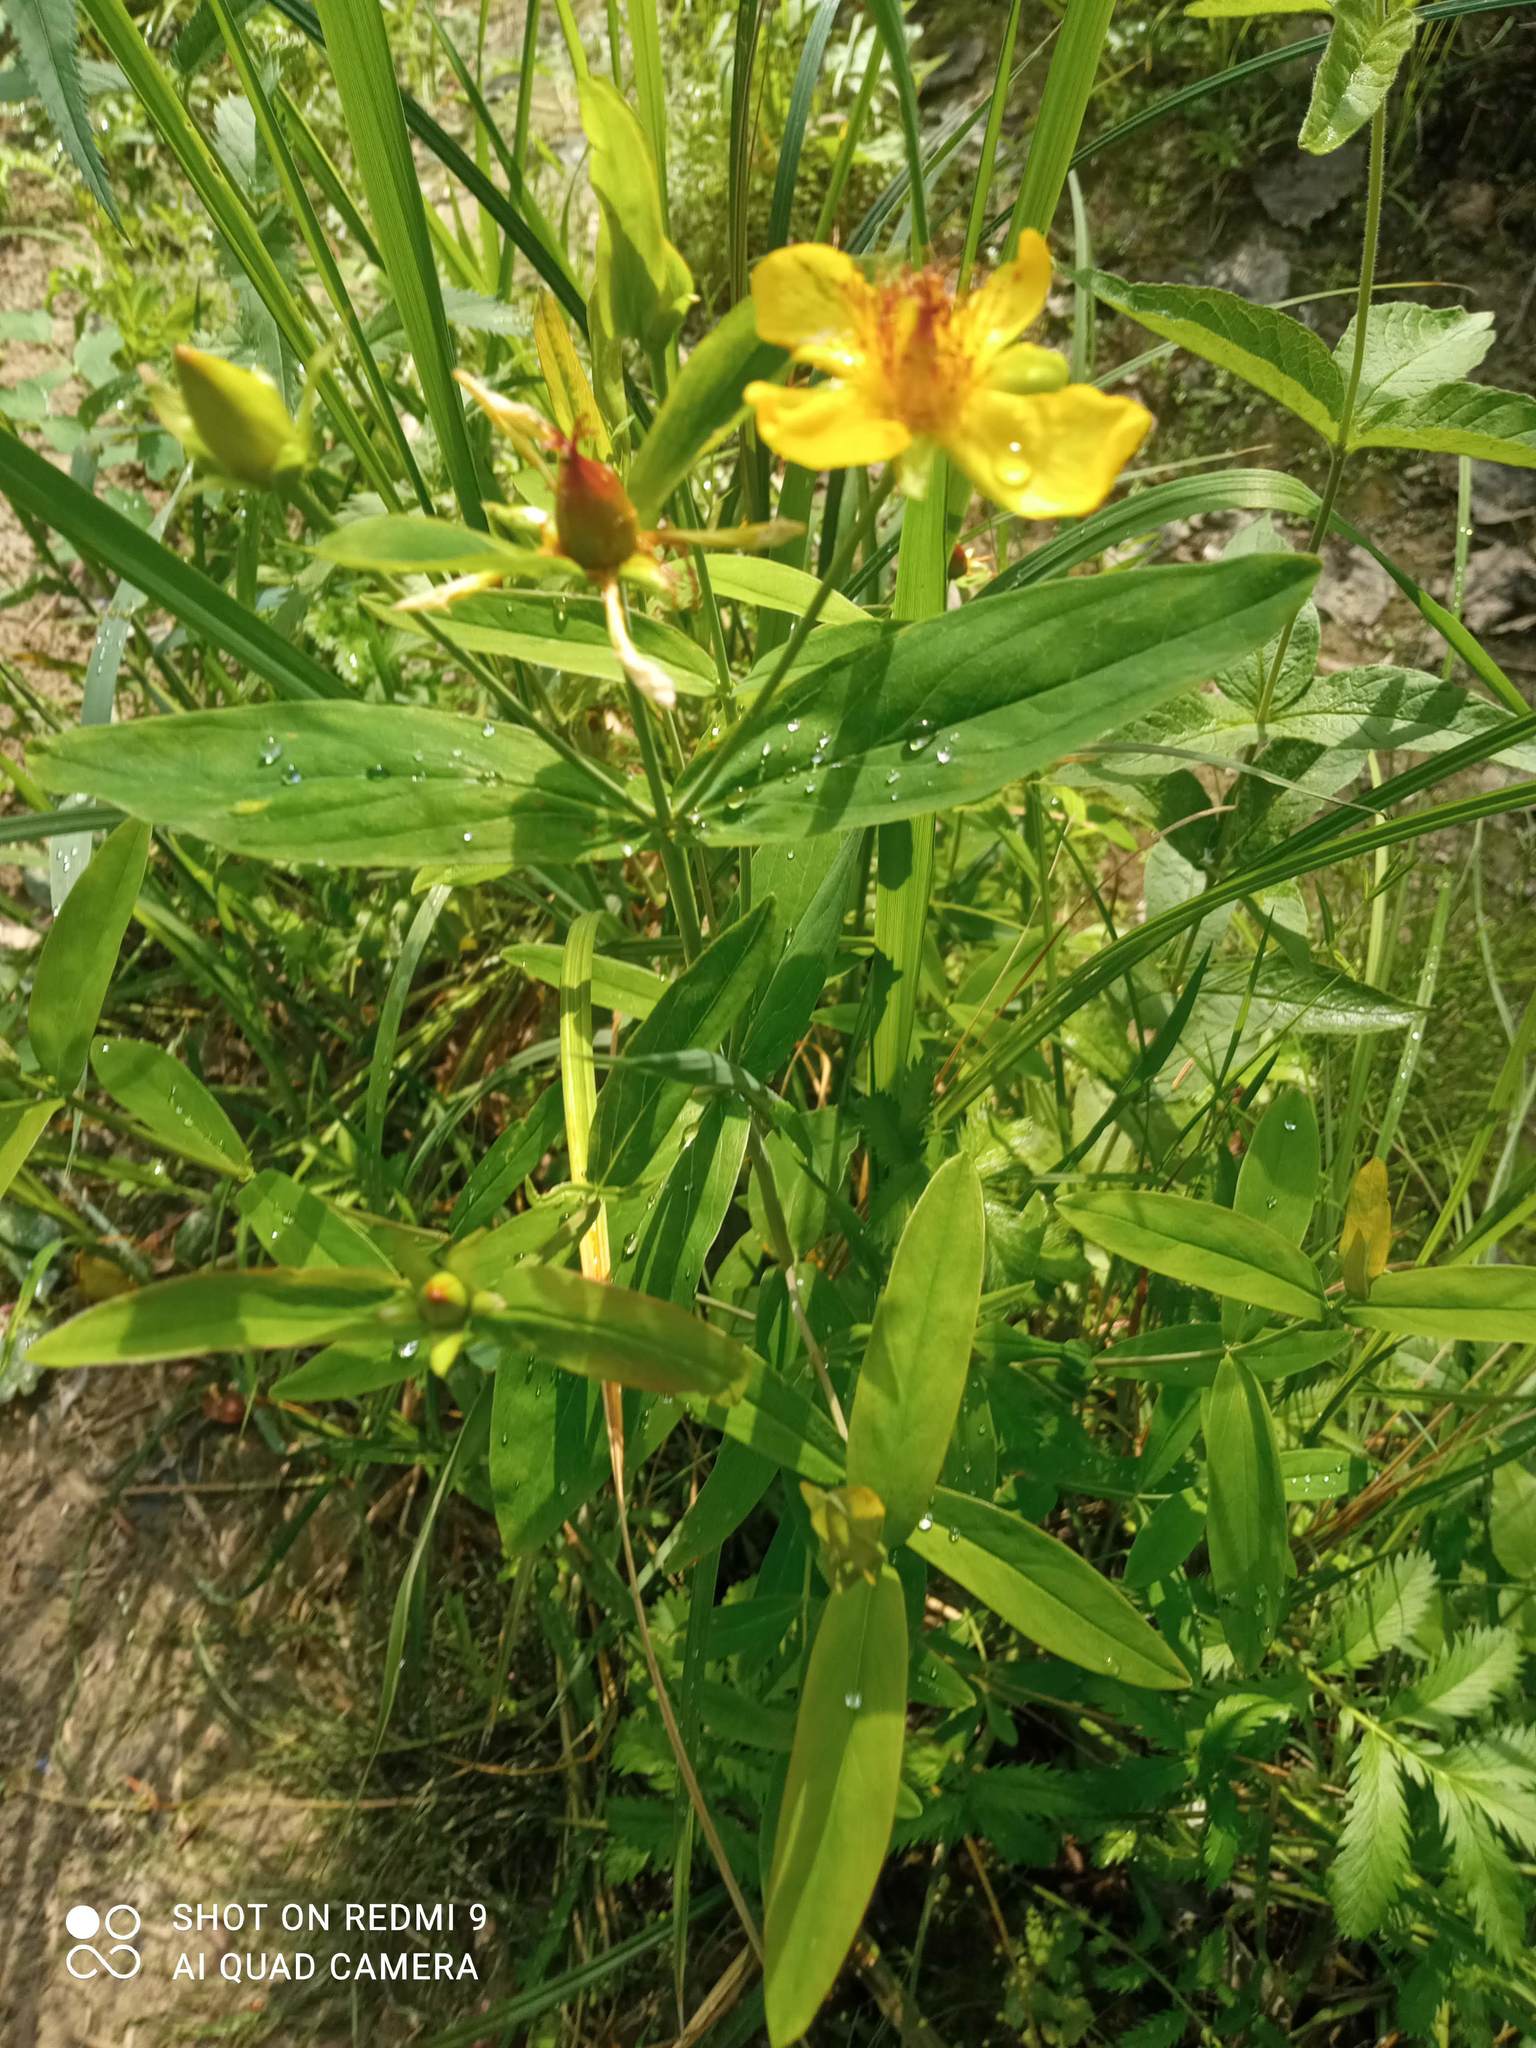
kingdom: Plantae
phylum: Tracheophyta
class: Magnoliopsida
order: Malpighiales
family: Hypericaceae
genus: Hypericum
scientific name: Hypericum ascyron
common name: Giant st. john's-wort
